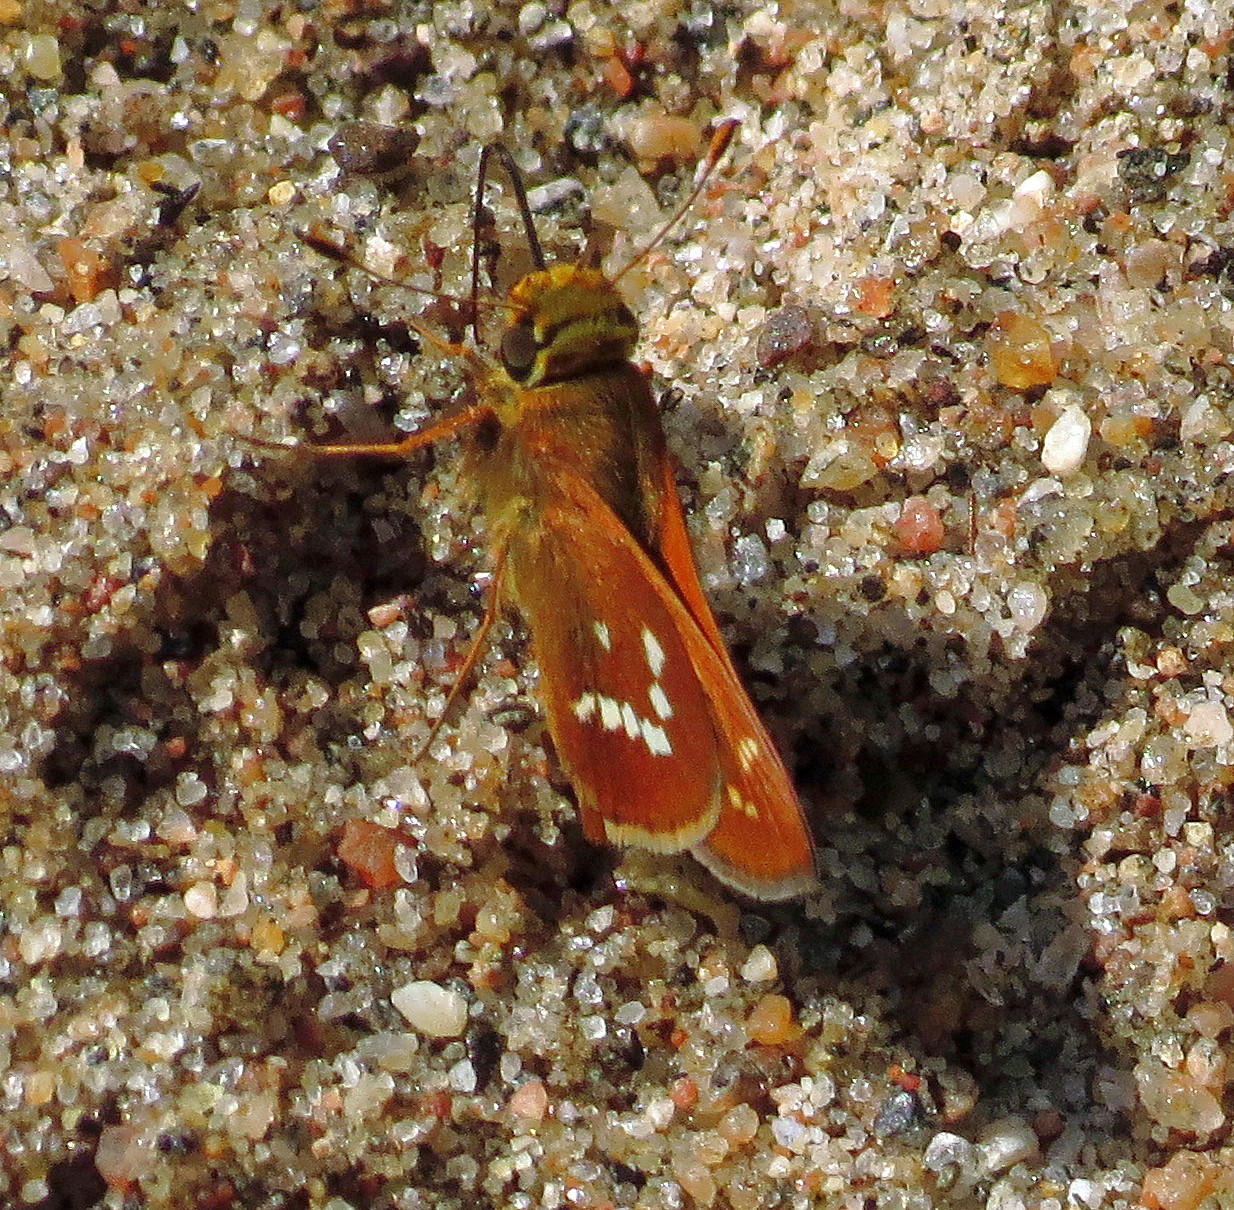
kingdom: Animalia
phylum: Arthropoda
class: Insecta
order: Lepidoptera
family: Hesperiidae
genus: Hesperia
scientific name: Hesperia leonardus
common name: Leonard's skipper
